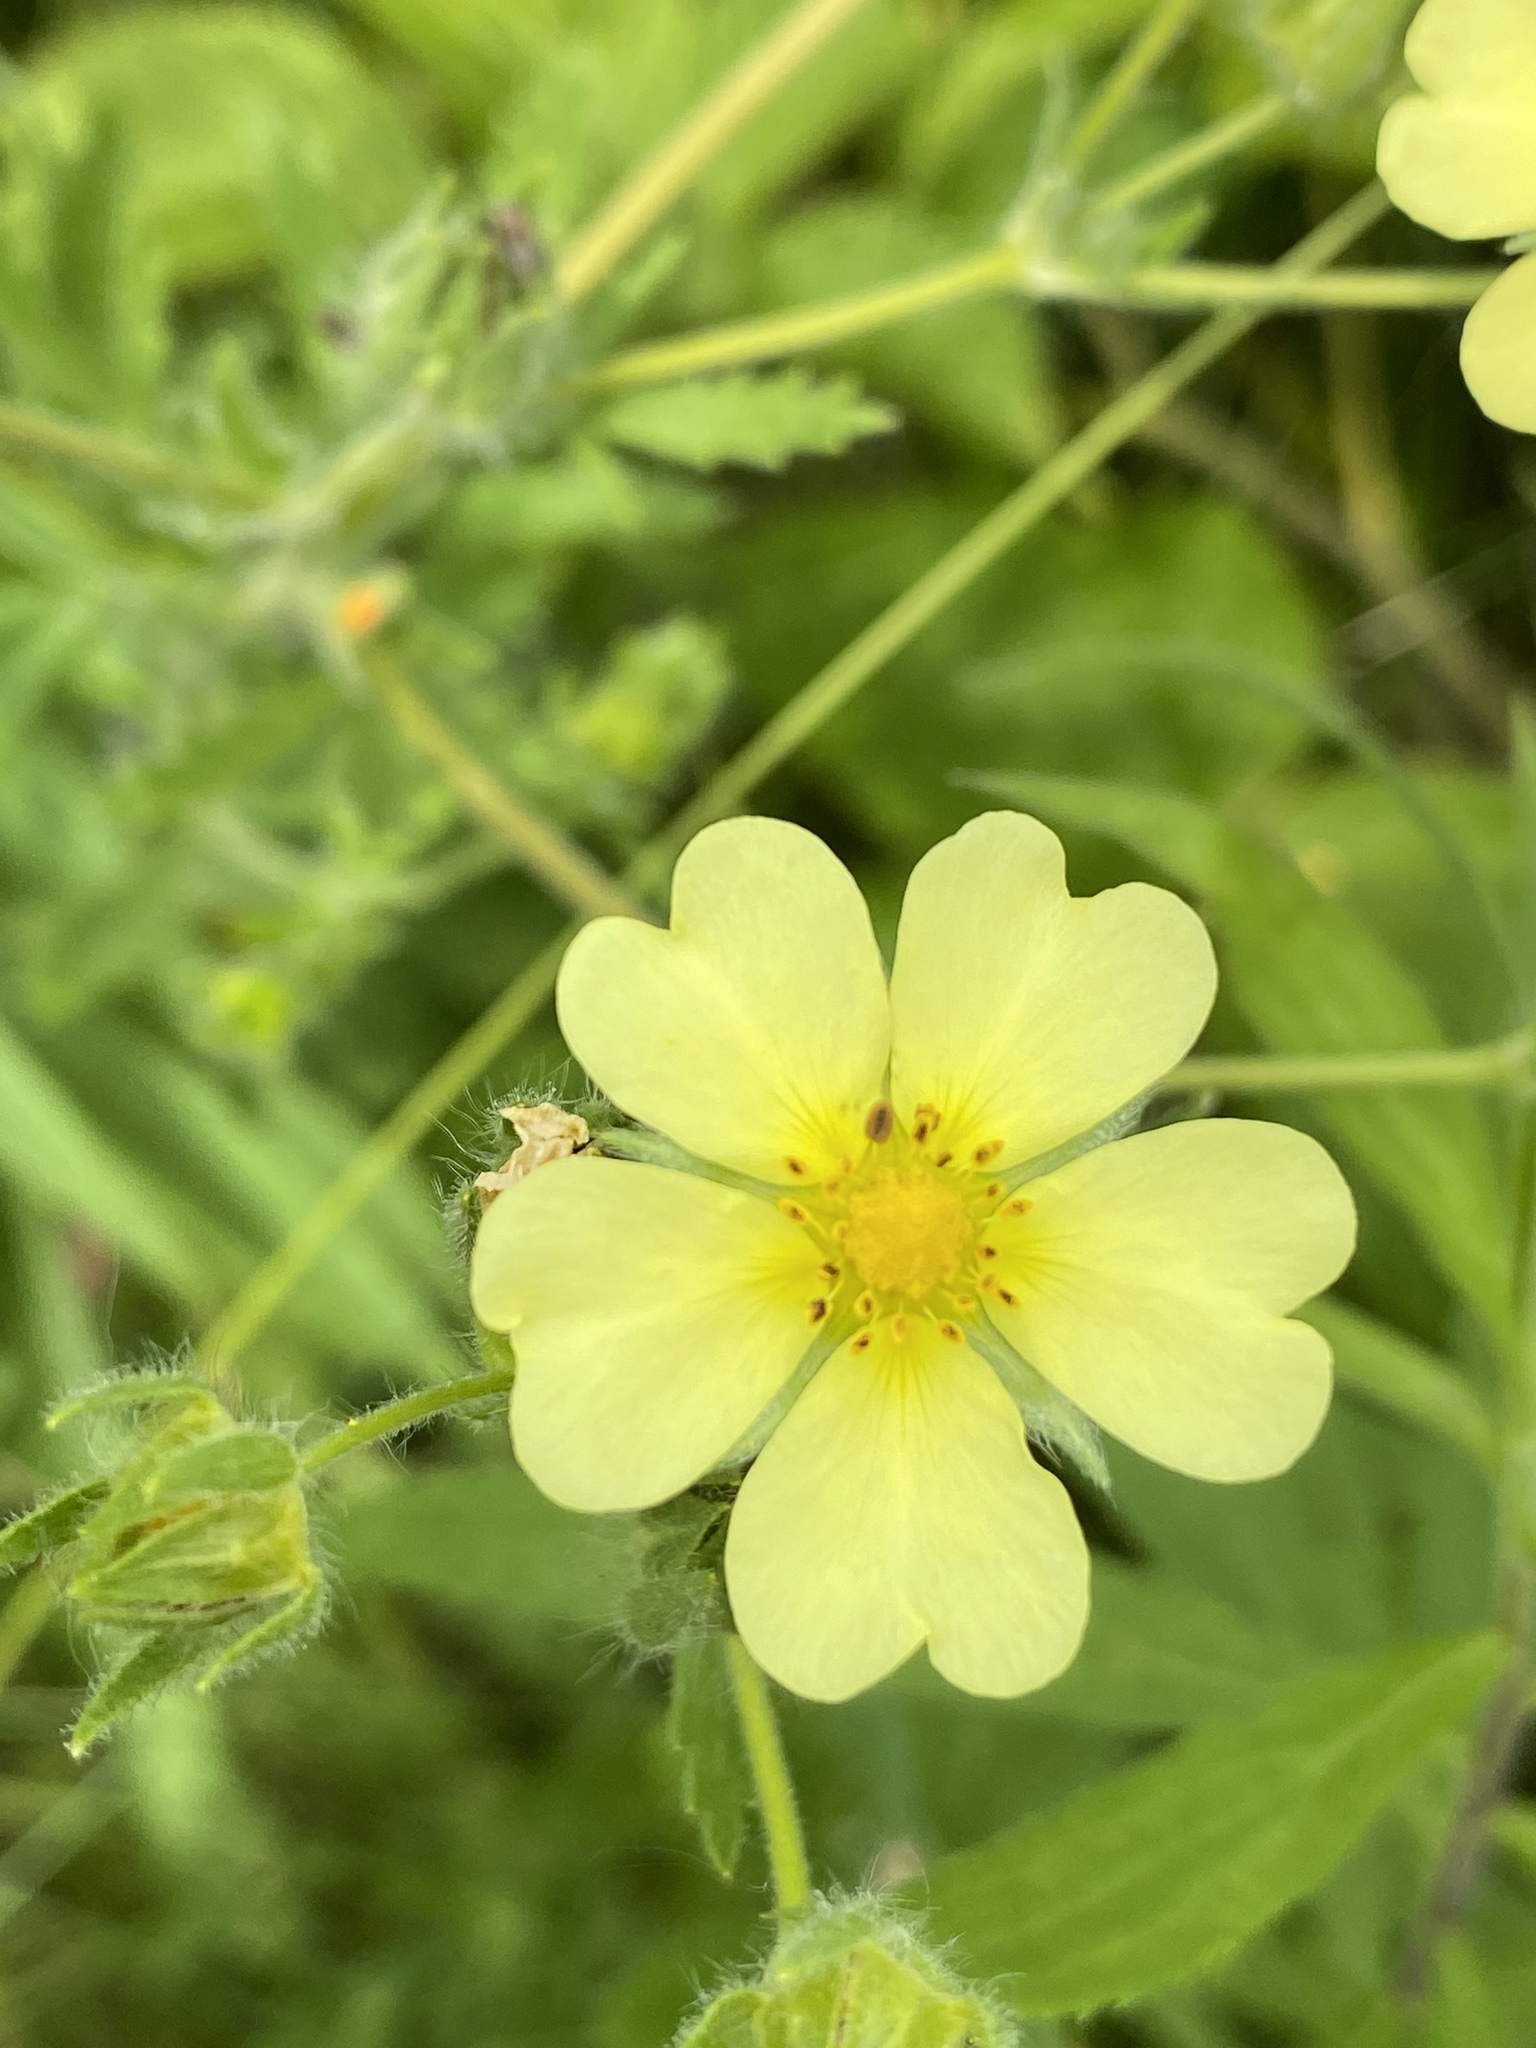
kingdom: Plantae
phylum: Tracheophyta
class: Magnoliopsida
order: Rosales
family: Rosaceae
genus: Potentilla
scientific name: Potentilla recta
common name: Sulphur cinquefoil
